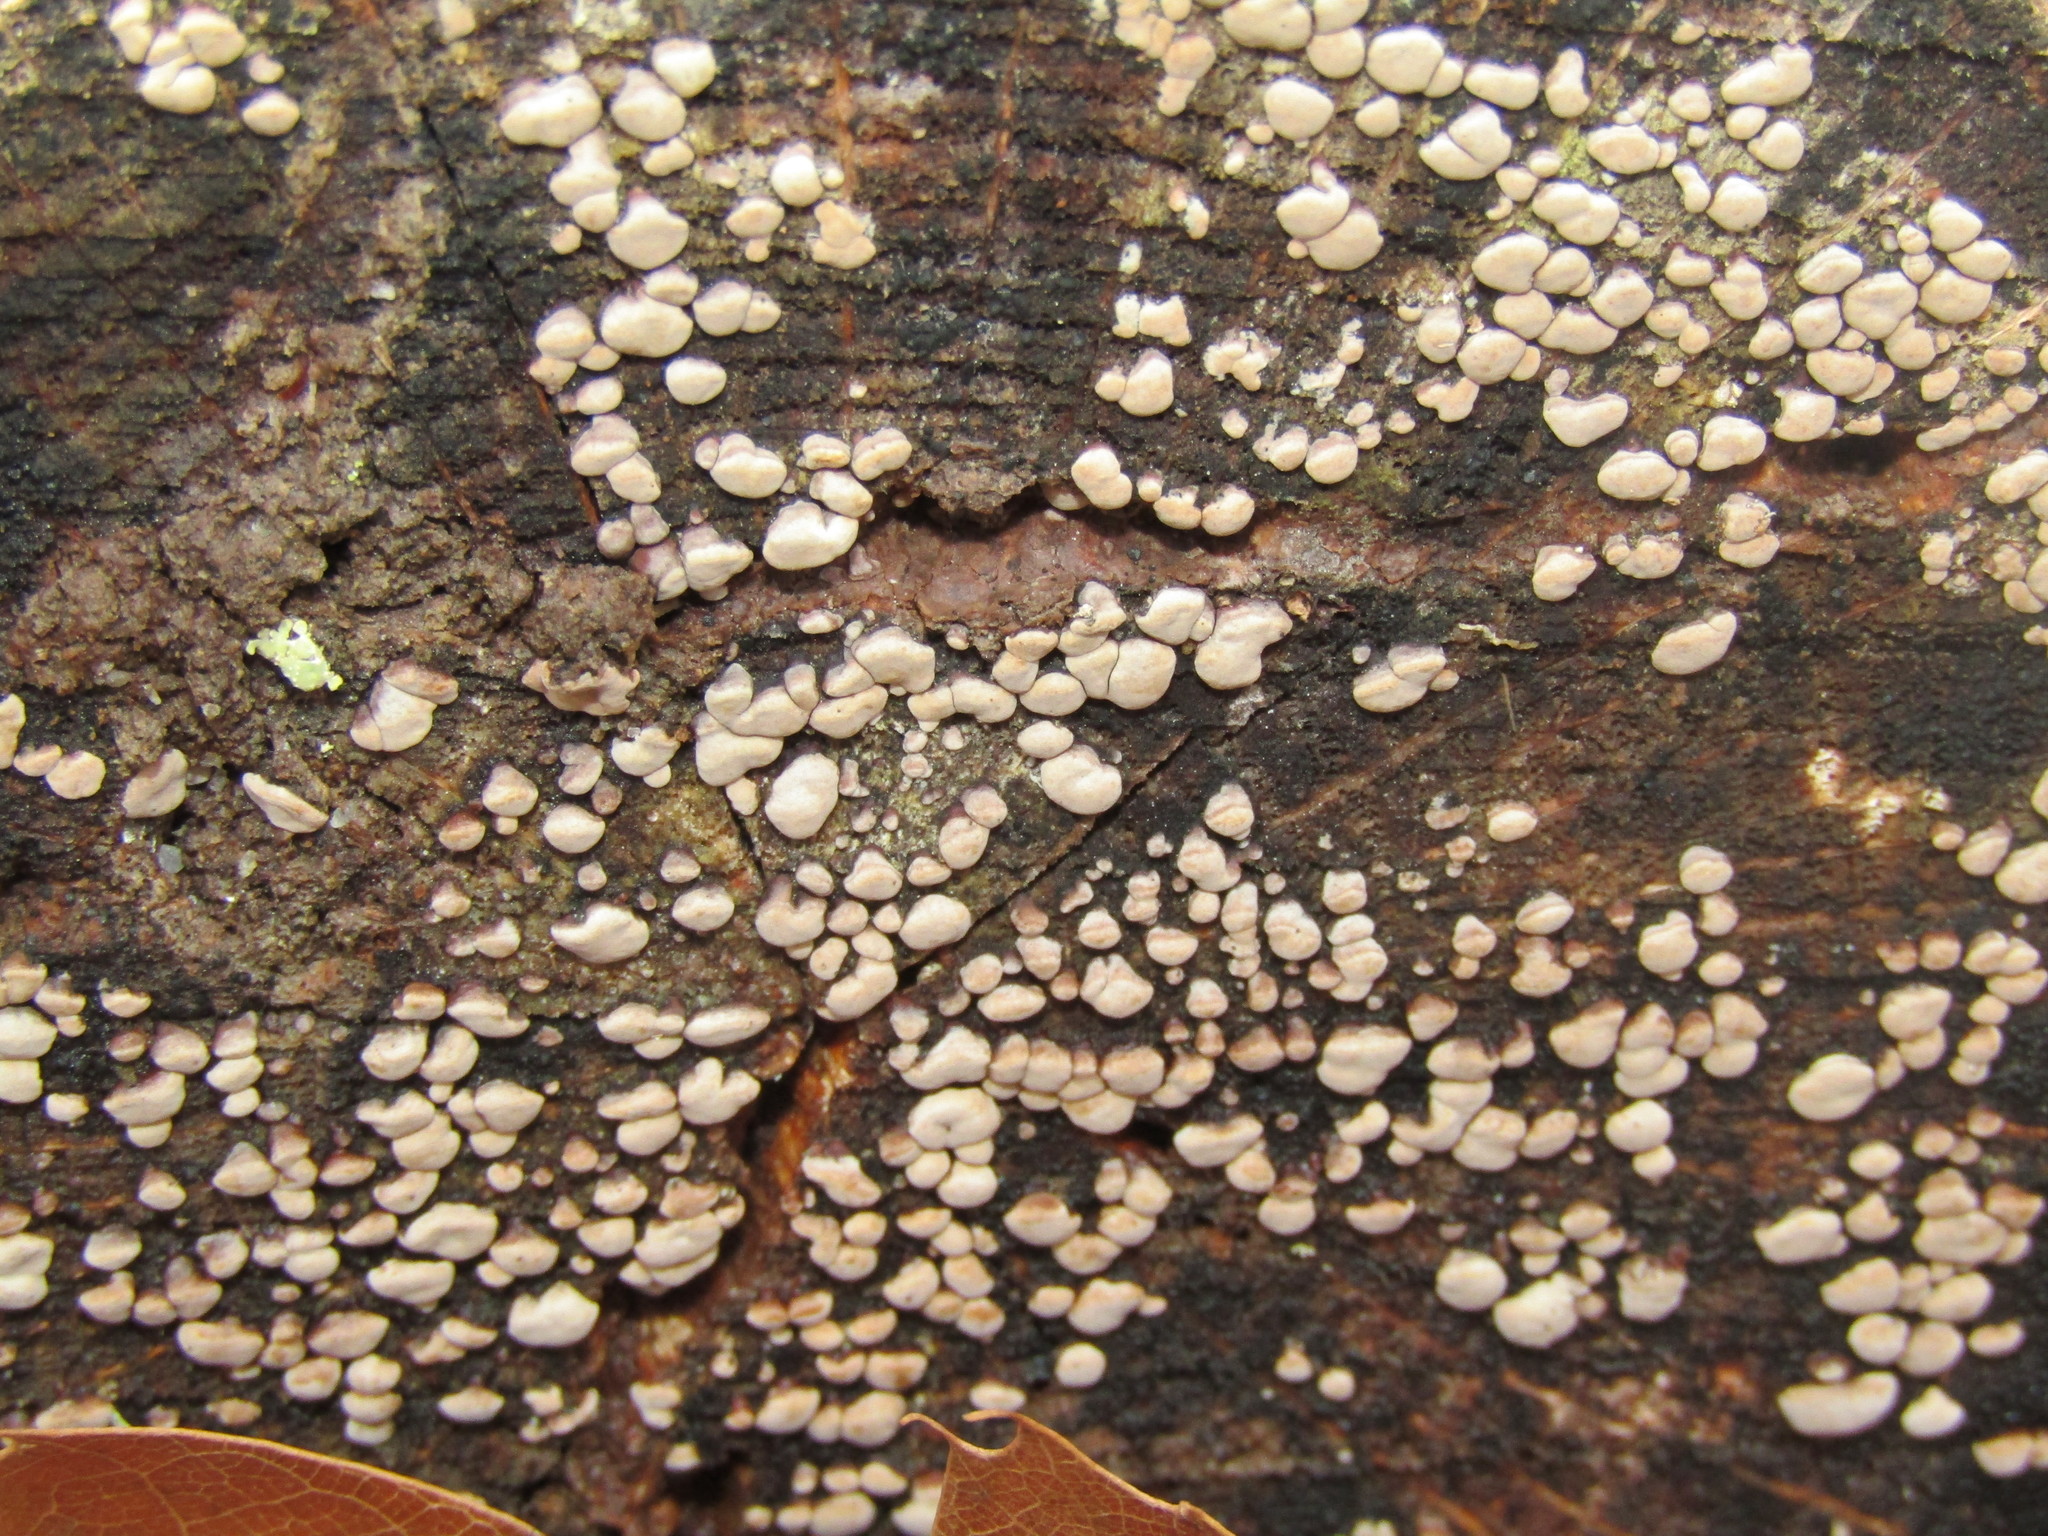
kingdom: Fungi
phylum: Basidiomycota
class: Agaricomycetes
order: Russulales
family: Stereaceae
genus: Xylobolus
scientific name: Xylobolus frustulatus
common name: Ceramic parchment
